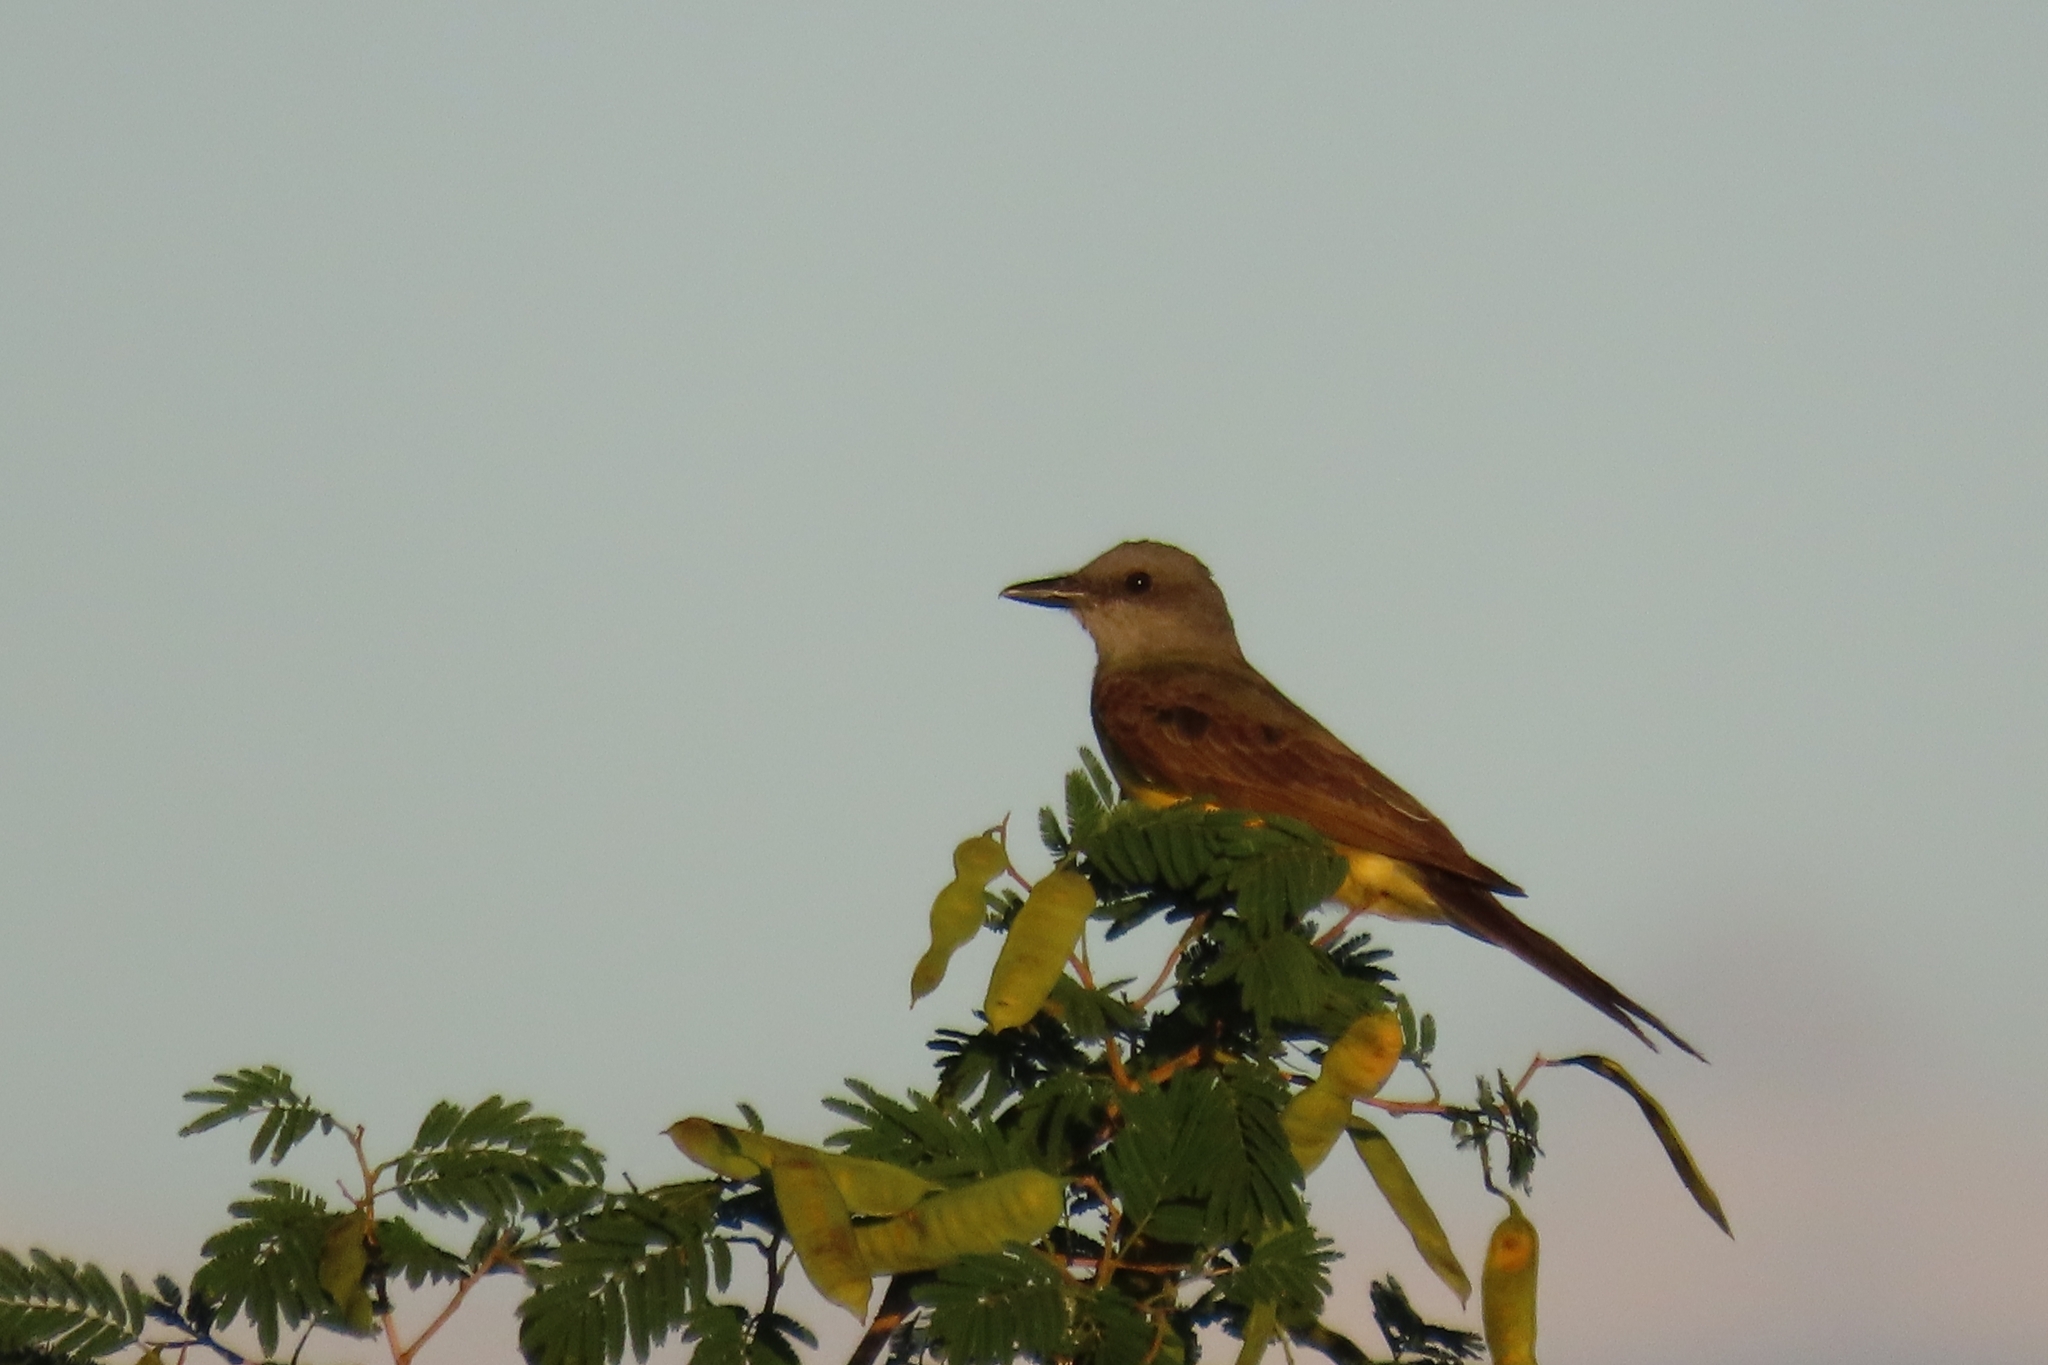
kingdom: Animalia
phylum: Chordata
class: Aves
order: Passeriformes
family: Tyrannidae
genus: Tyrannus
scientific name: Tyrannus melancholicus
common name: Tropical kingbird
